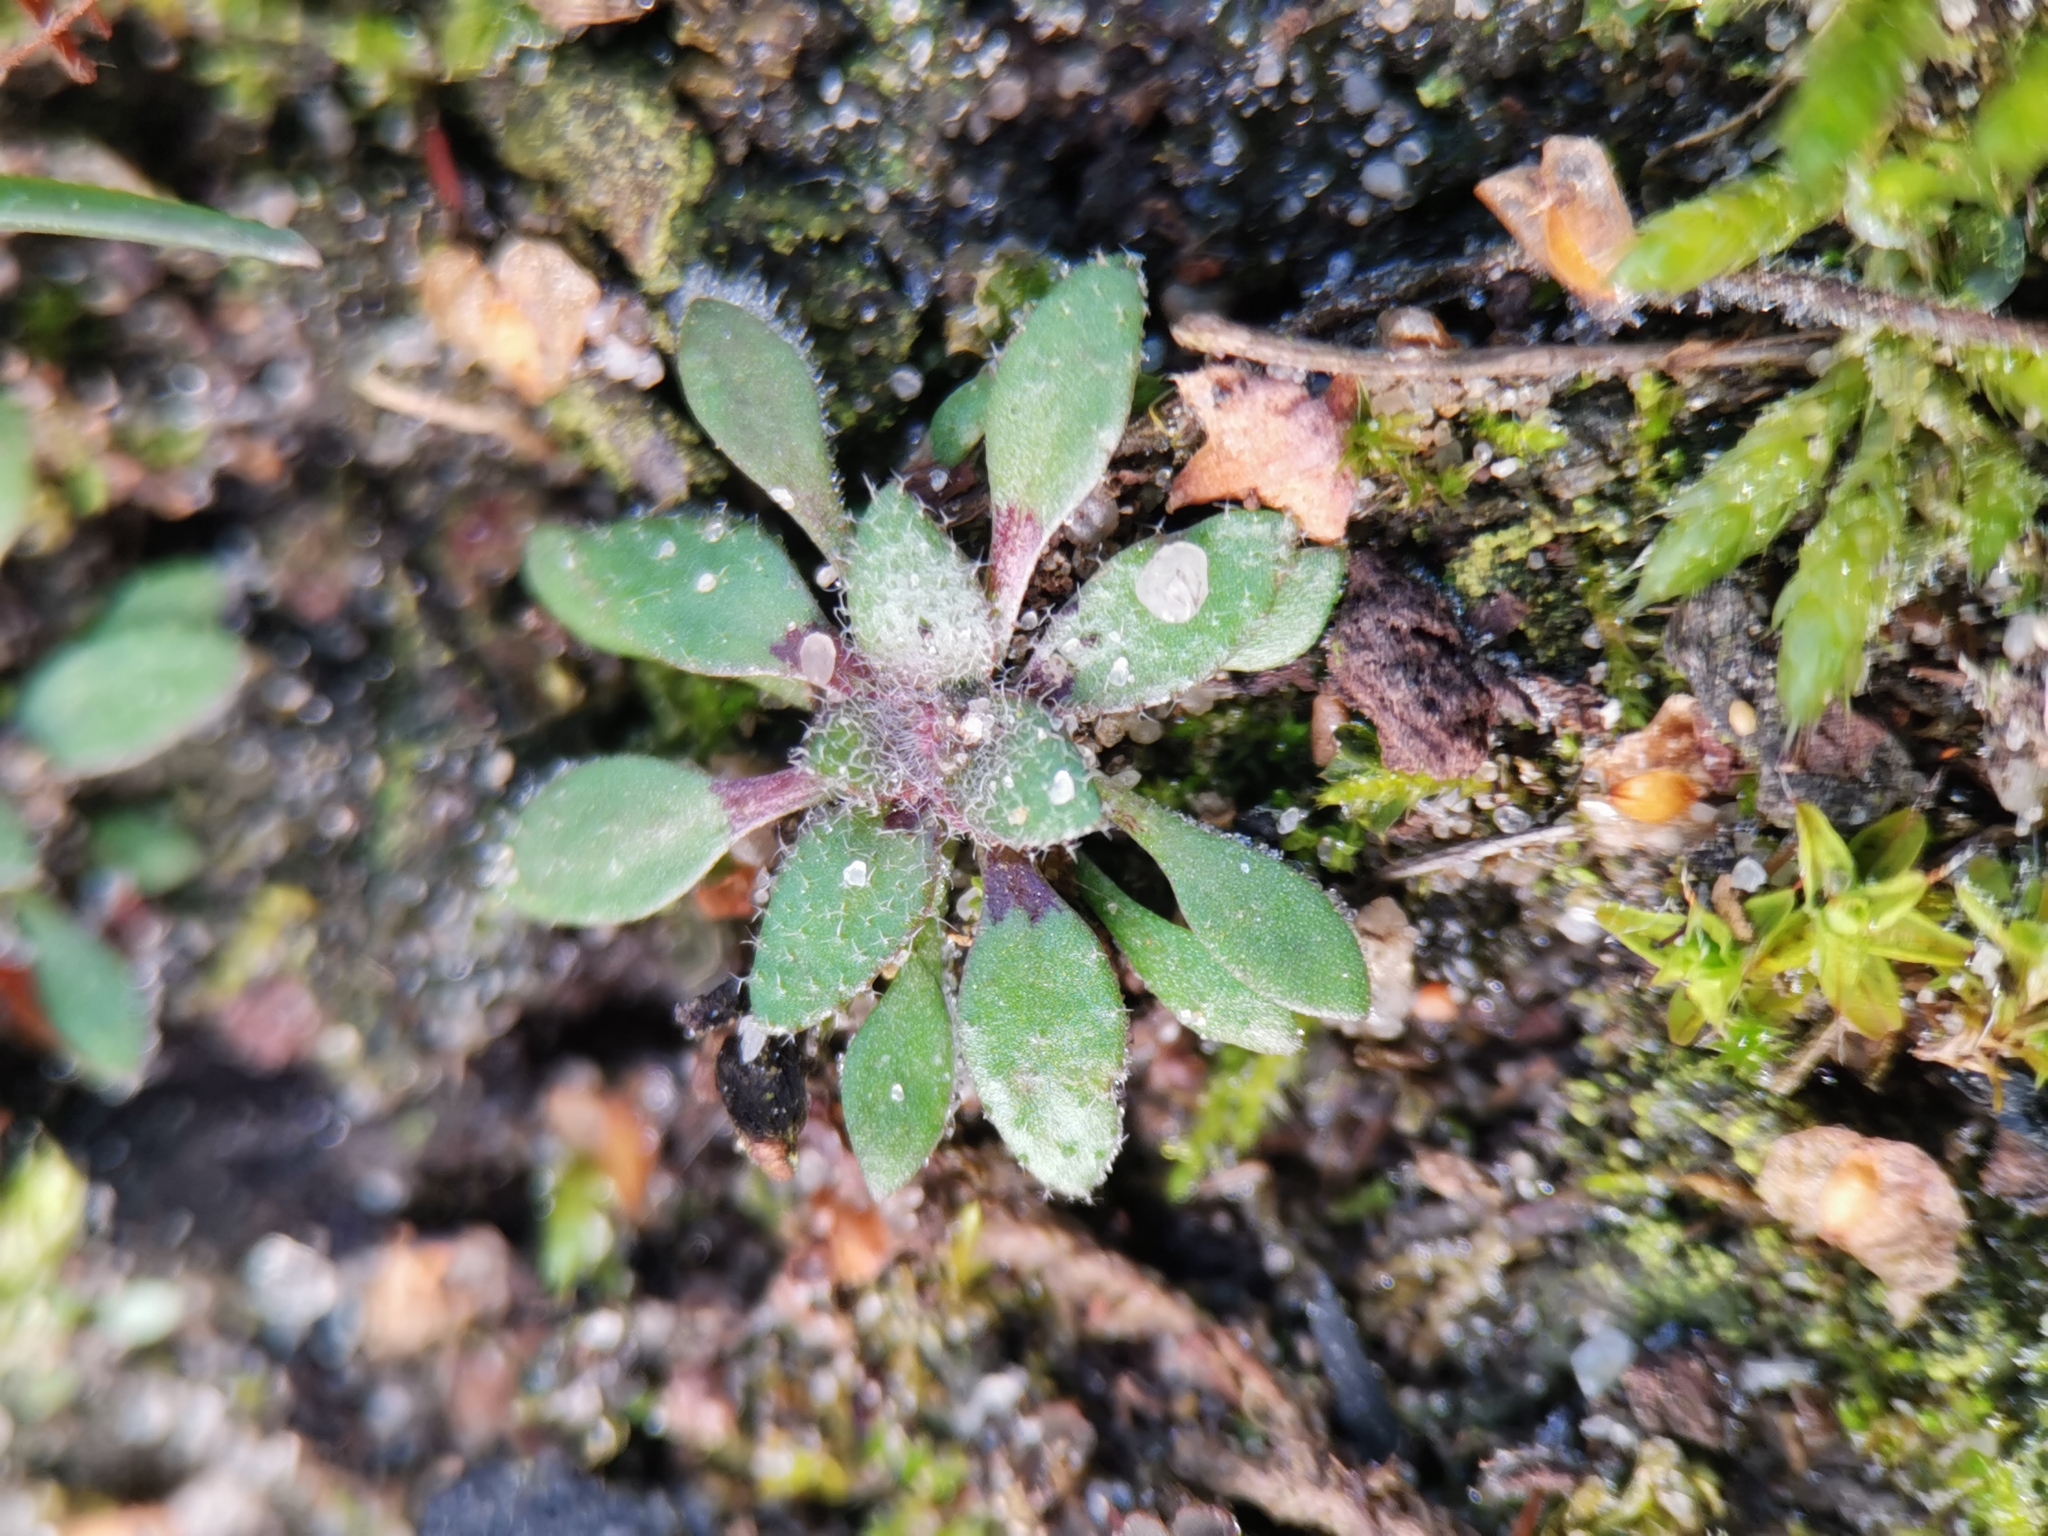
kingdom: Plantae
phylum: Tracheophyta
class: Magnoliopsida
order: Brassicales
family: Brassicaceae
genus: Draba
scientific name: Draba verna
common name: Spring draba
